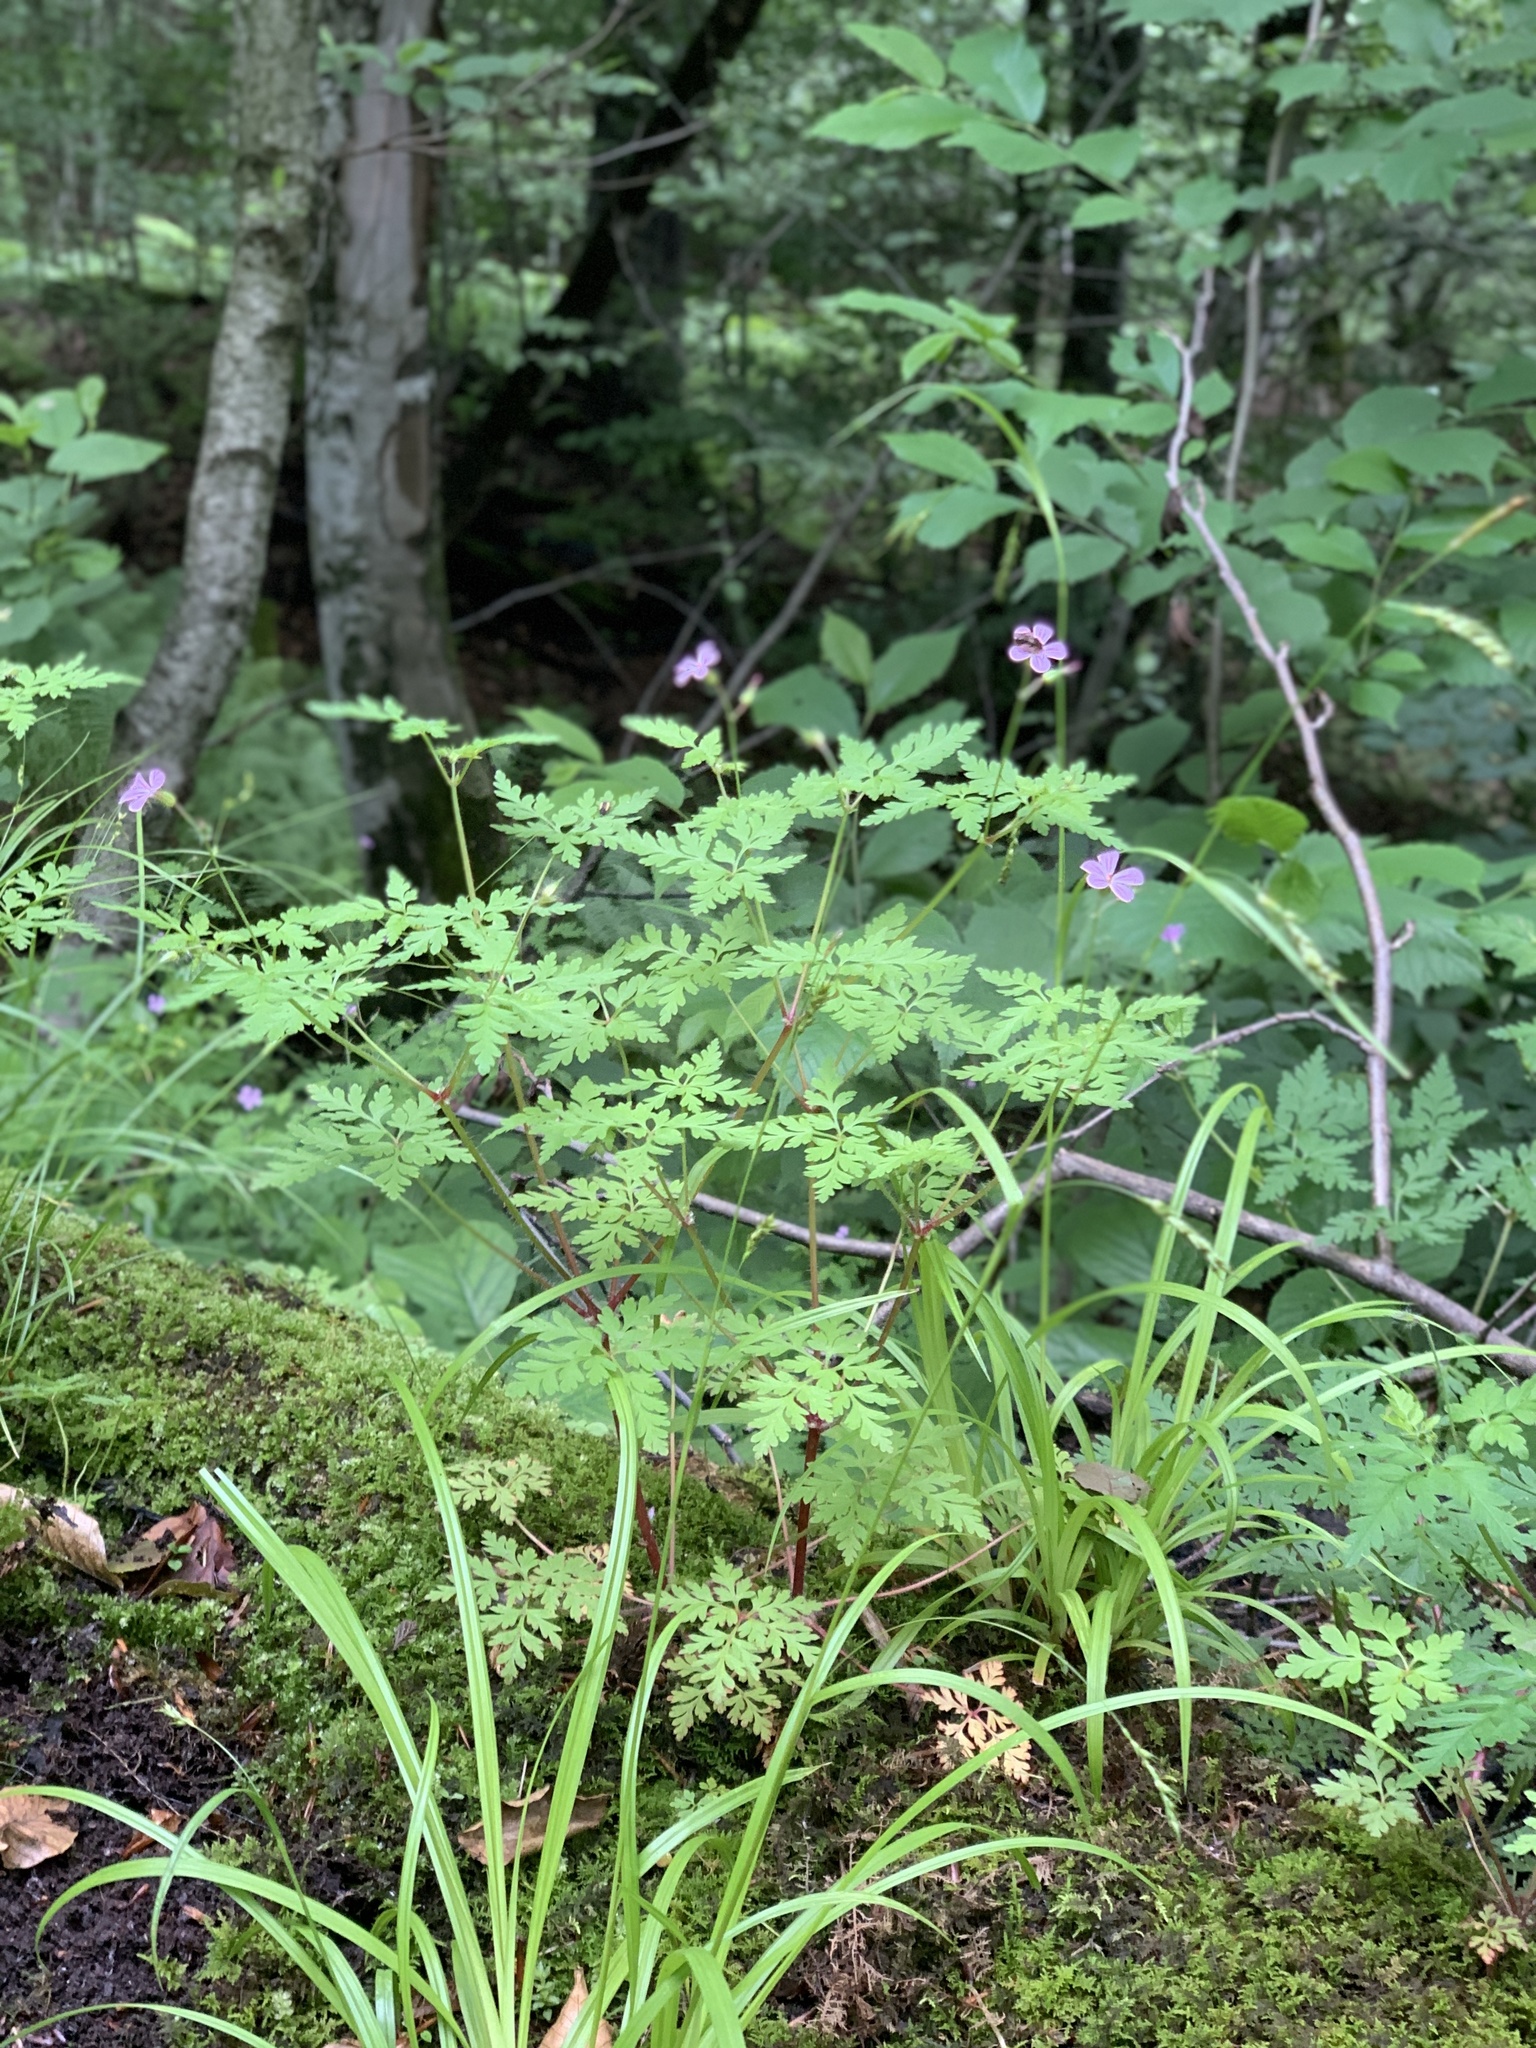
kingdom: Plantae
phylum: Tracheophyta
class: Magnoliopsida
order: Geraniales
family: Geraniaceae
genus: Geranium
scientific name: Geranium robertianum
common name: Herb-robert
